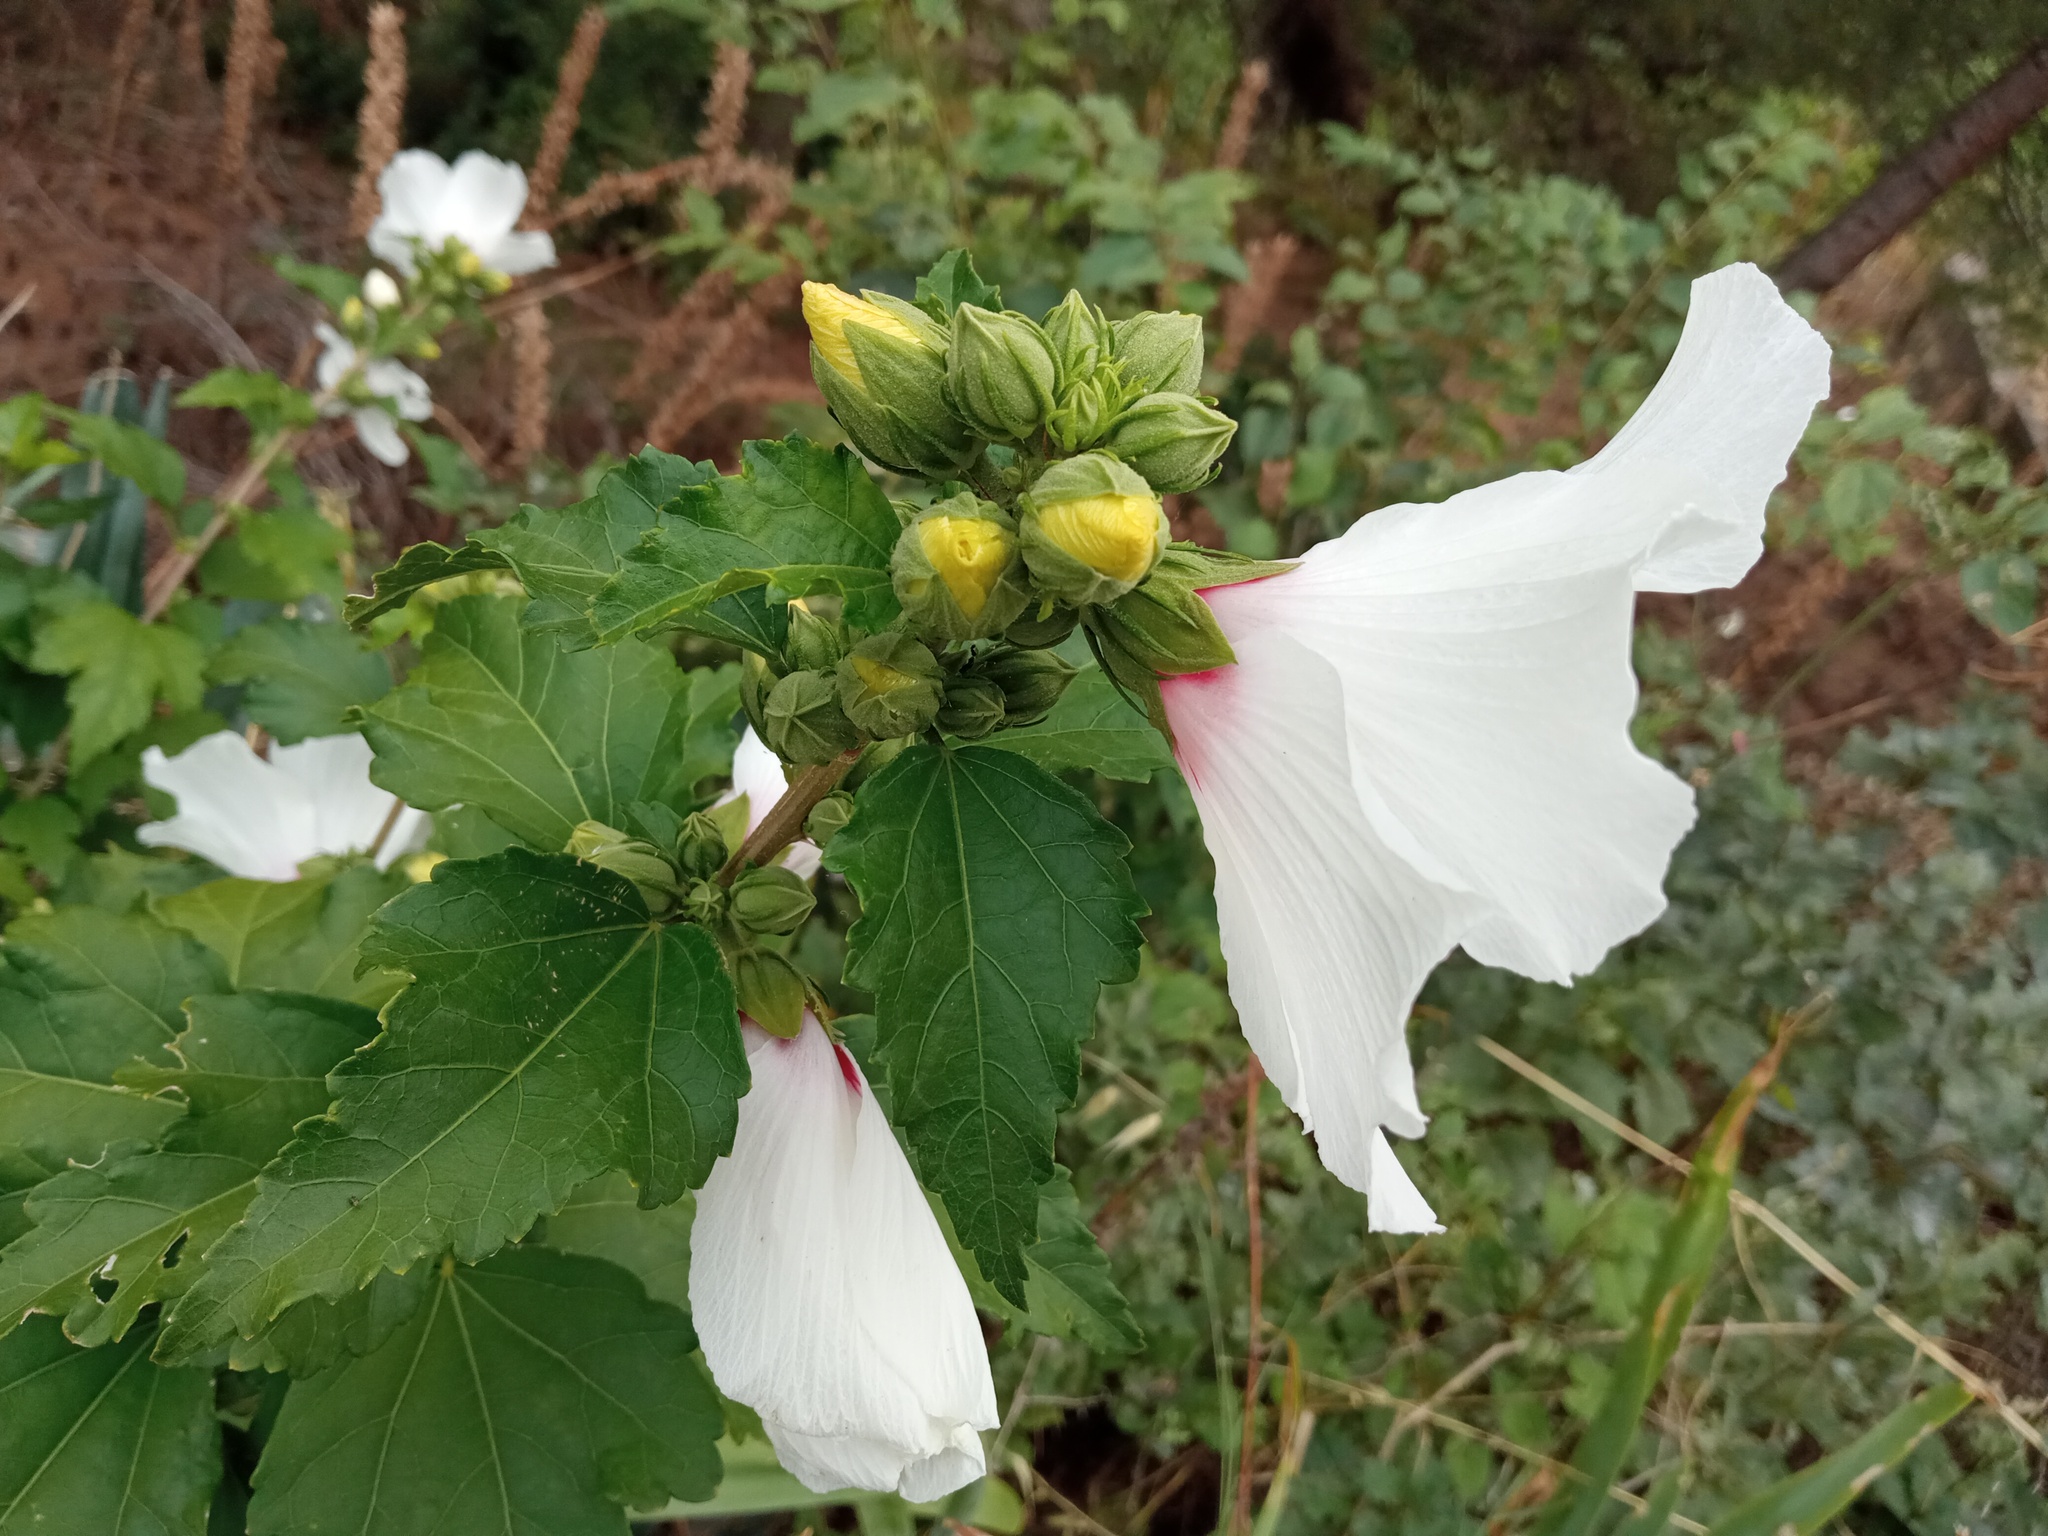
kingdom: Plantae
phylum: Tracheophyta
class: Magnoliopsida
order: Malvales
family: Malvaceae
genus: Hibiscus
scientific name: Hibiscus syriacus
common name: Syrian ketmia
